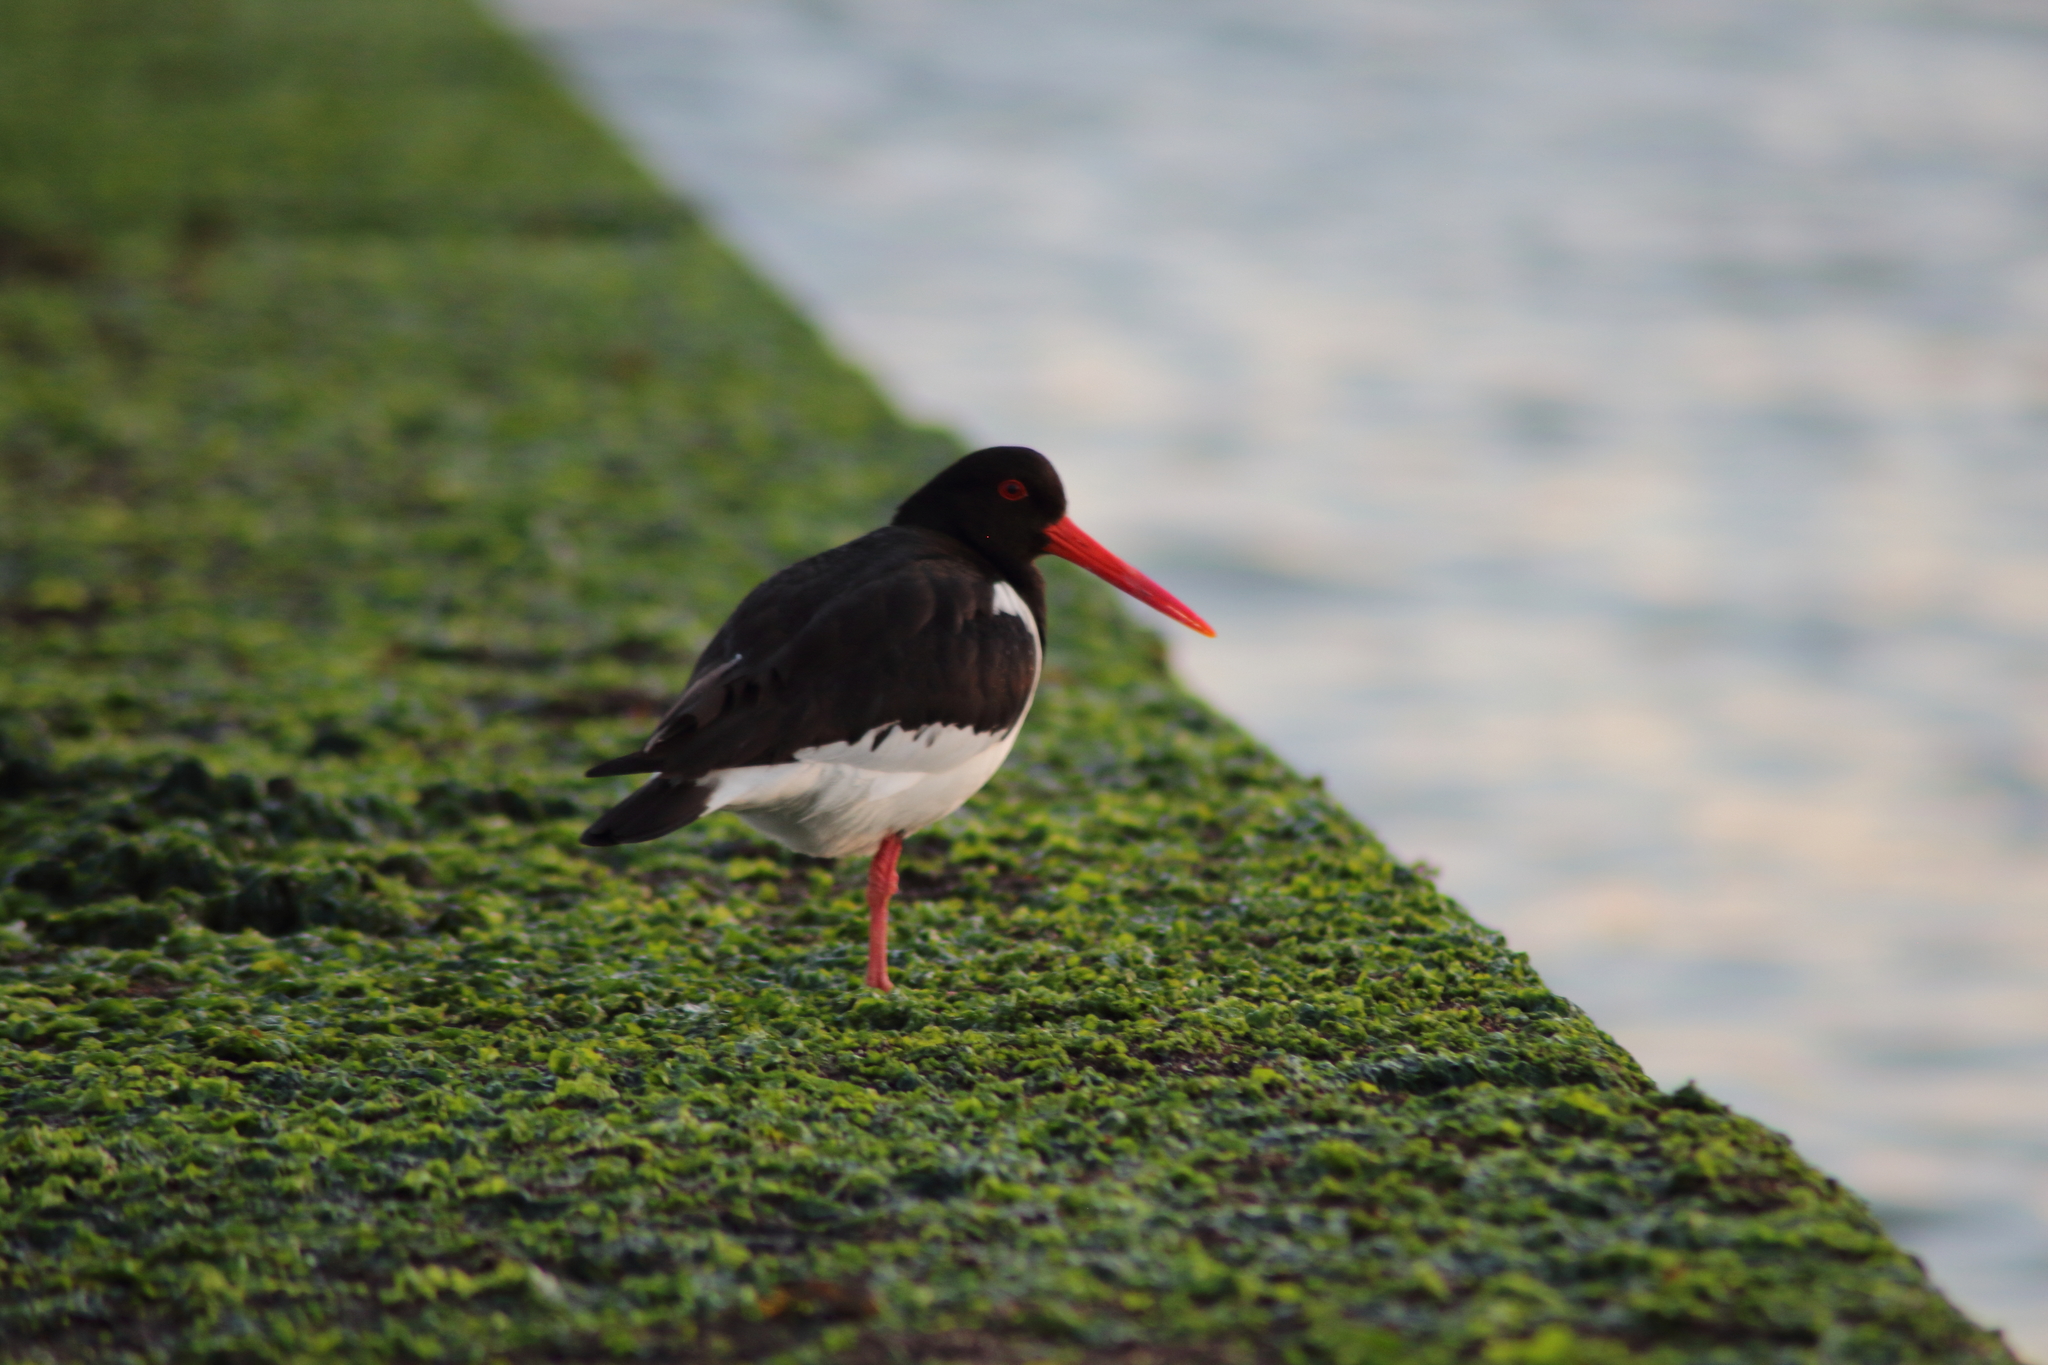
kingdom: Animalia
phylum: Chordata
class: Aves
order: Charadriiformes
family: Haematopodidae
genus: Haematopus
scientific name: Haematopus ostralegus
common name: Eurasian oystercatcher
